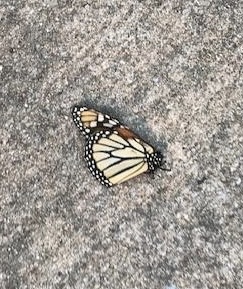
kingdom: Animalia
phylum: Arthropoda
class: Insecta
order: Lepidoptera
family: Nymphalidae
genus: Danaus
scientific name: Danaus plexippus
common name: Monarch
